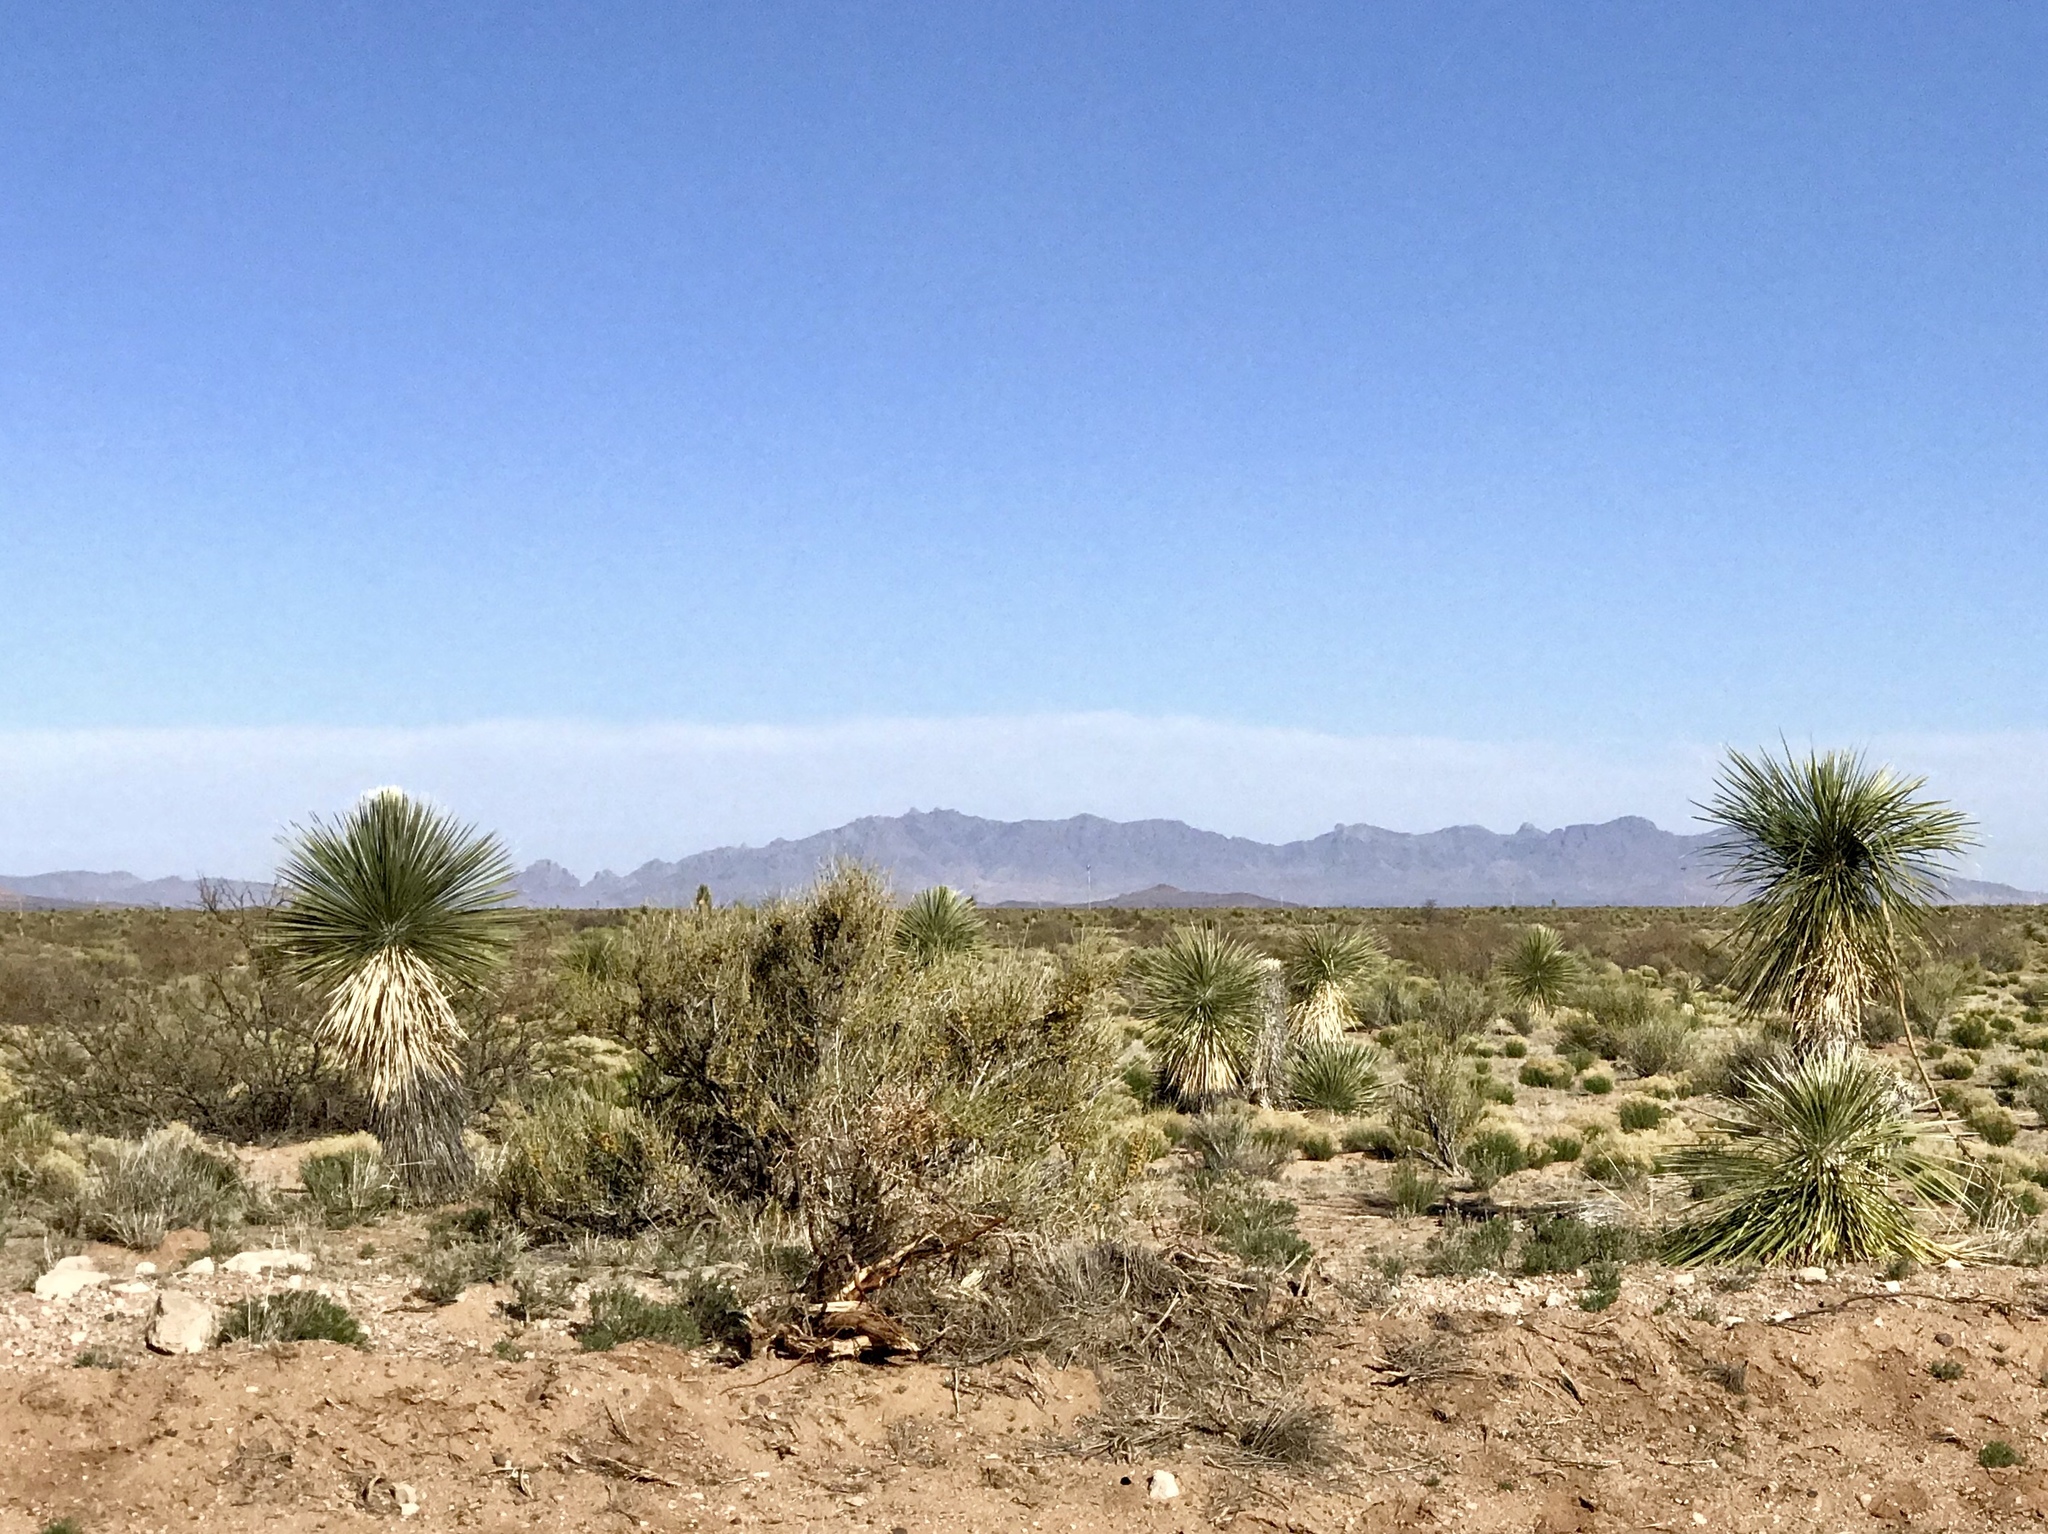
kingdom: Plantae
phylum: Tracheophyta
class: Liliopsida
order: Asparagales
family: Asparagaceae
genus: Yucca
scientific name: Yucca elata
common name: Palmella
